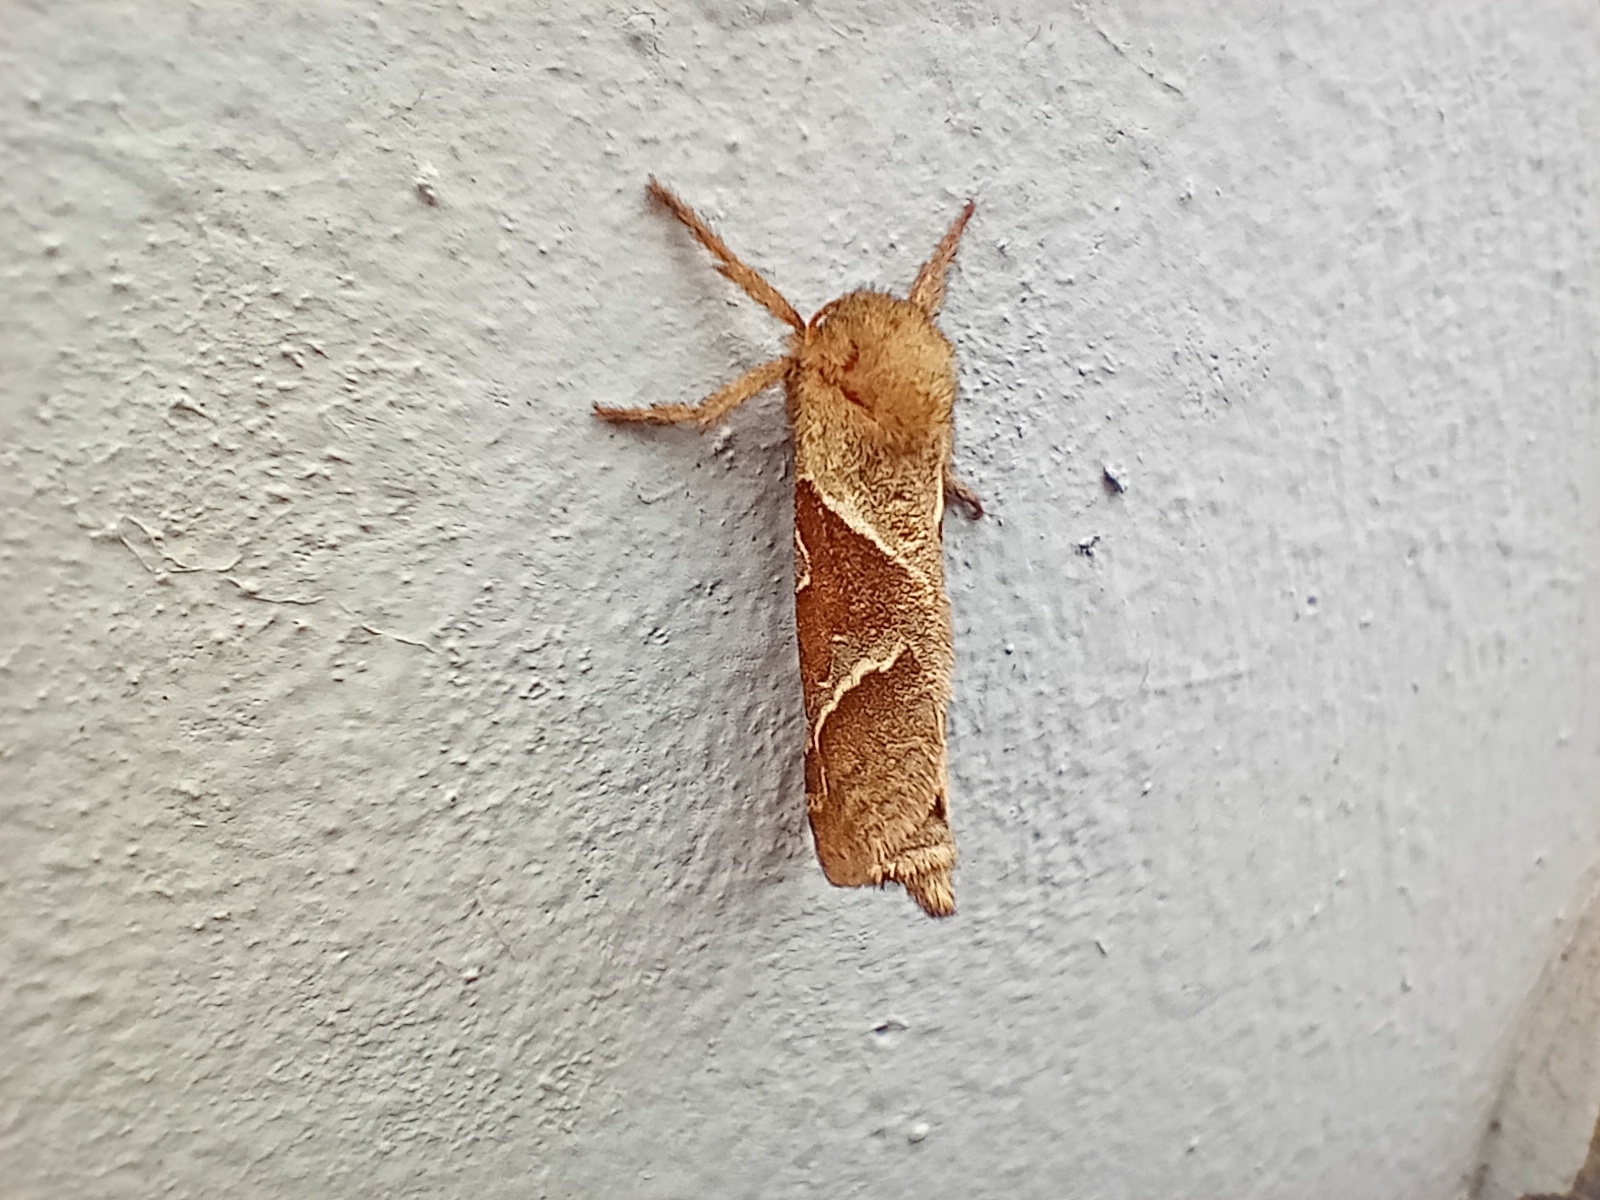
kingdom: Animalia
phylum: Arthropoda
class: Insecta
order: Lepidoptera
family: Hepialidae
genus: Triodia
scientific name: Triodia sylvina
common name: Orange swift
